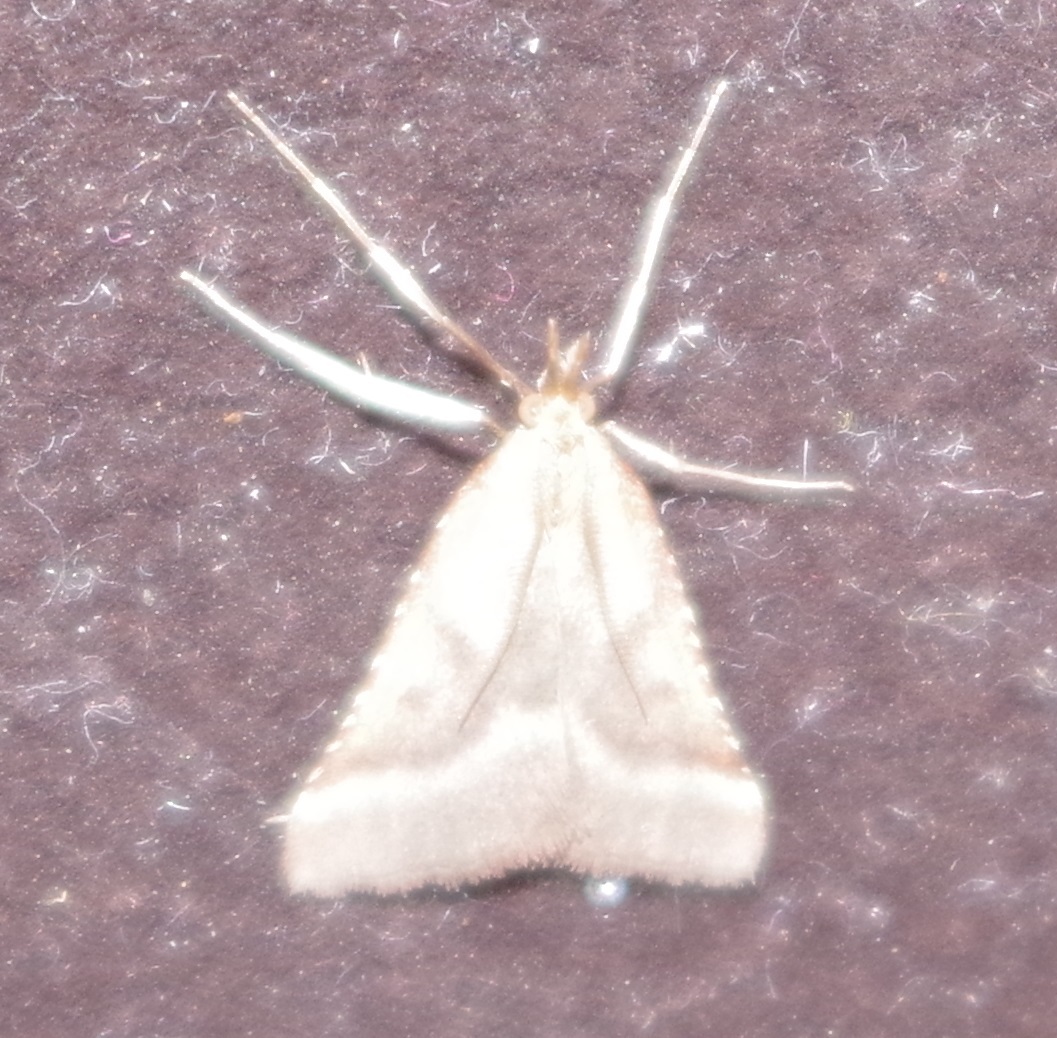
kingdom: Animalia
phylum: Arthropoda
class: Insecta
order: Lepidoptera
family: Pyralidae
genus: Synaphe
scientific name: Synaphe punctalis
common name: Long-legged tabby
